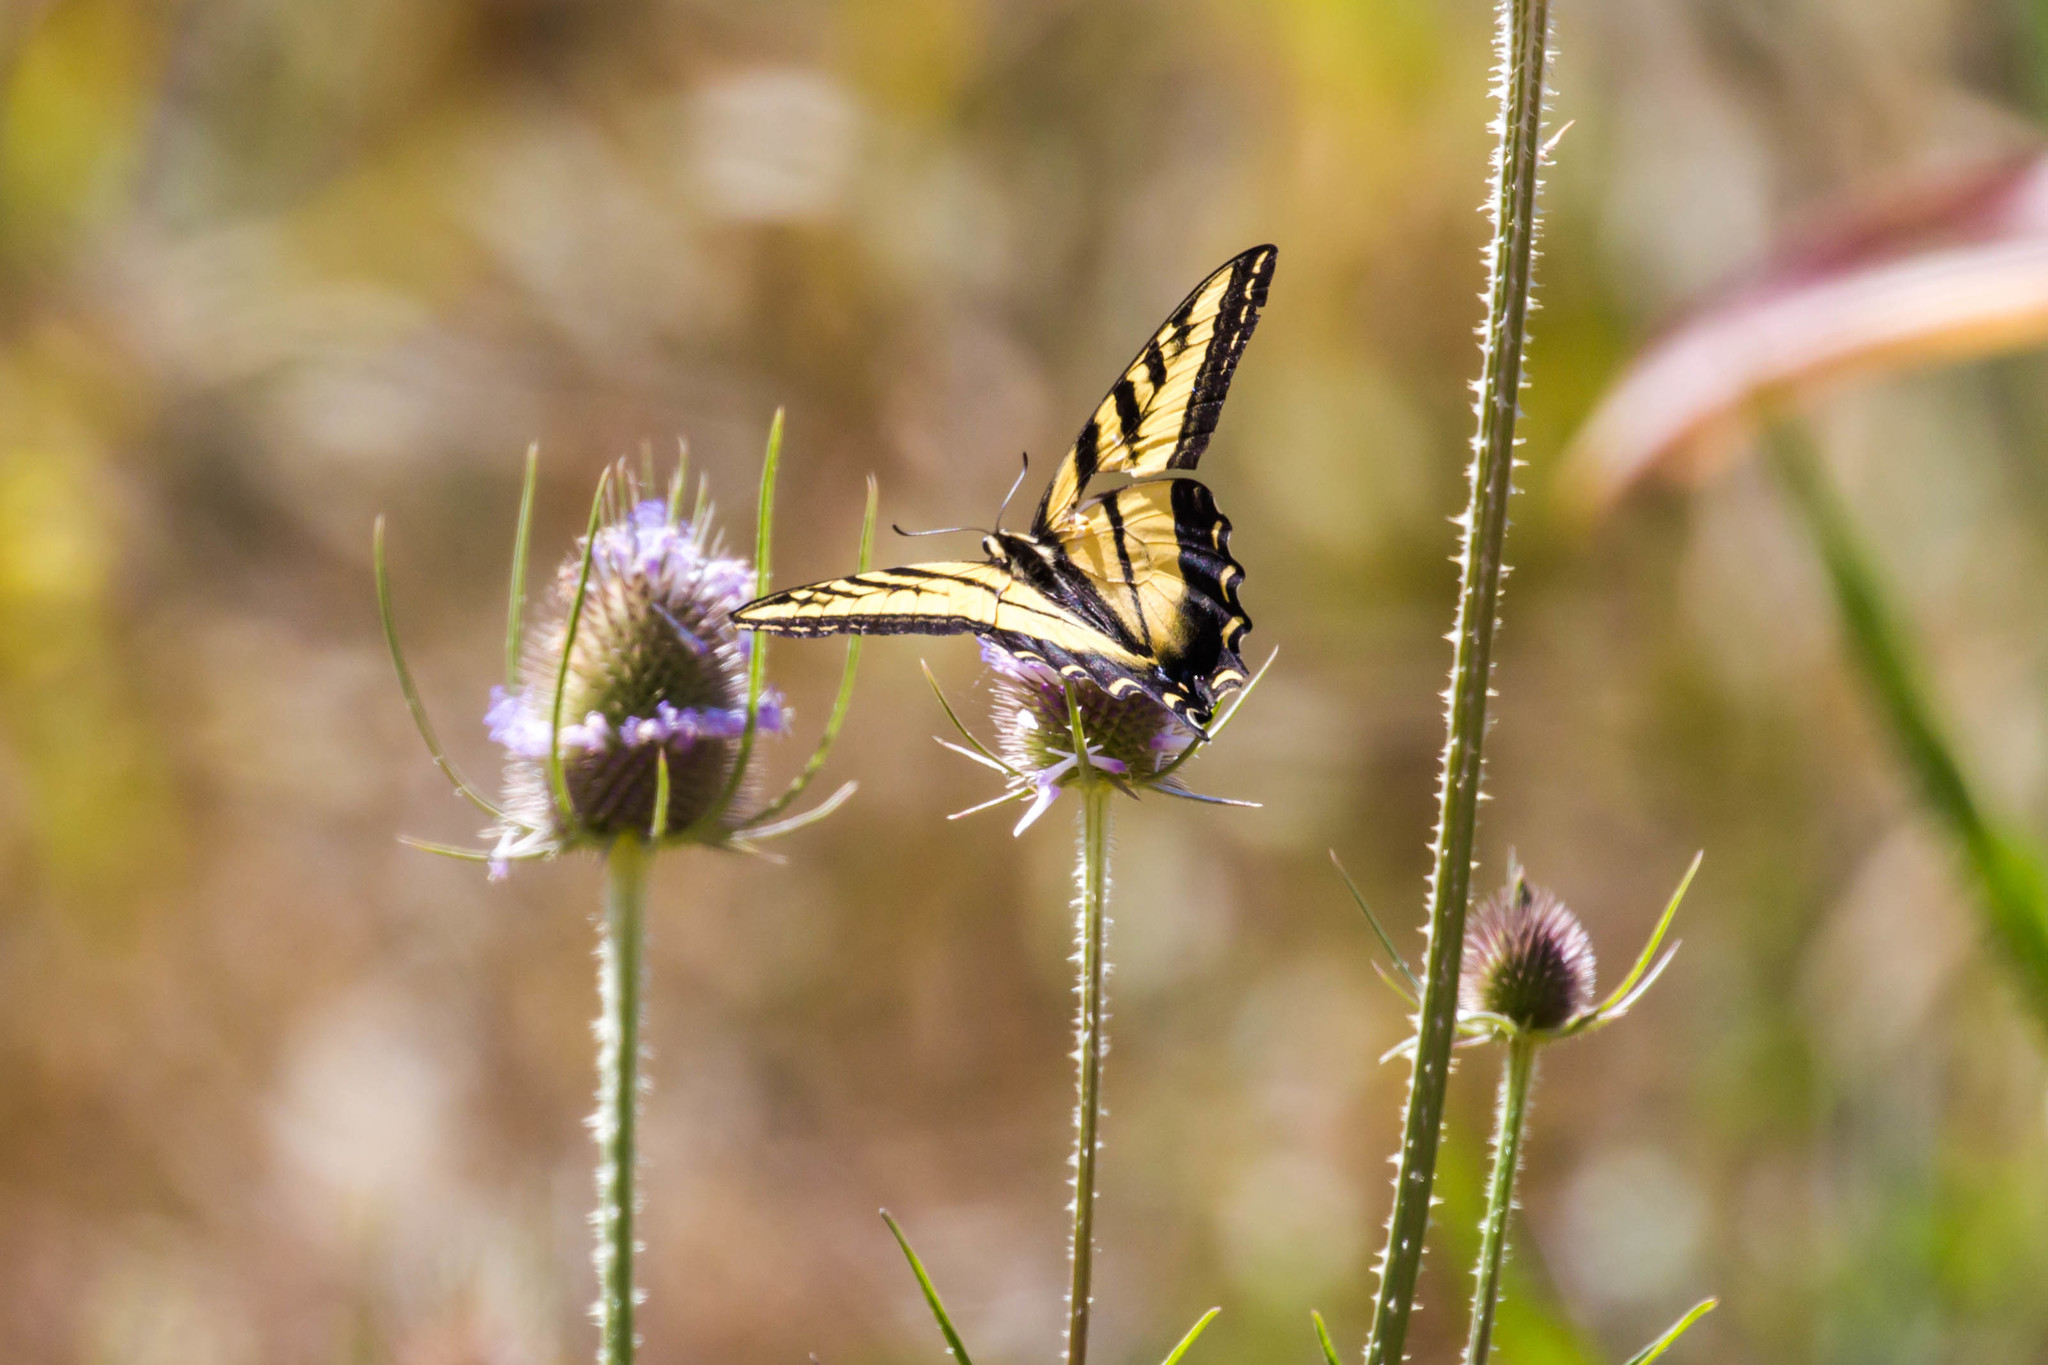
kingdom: Animalia
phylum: Arthropoda
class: Insecta
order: Lepidoptera
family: Papilionidae
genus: Papilio
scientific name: Papilio rutulus
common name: Western tiger swallowtail
